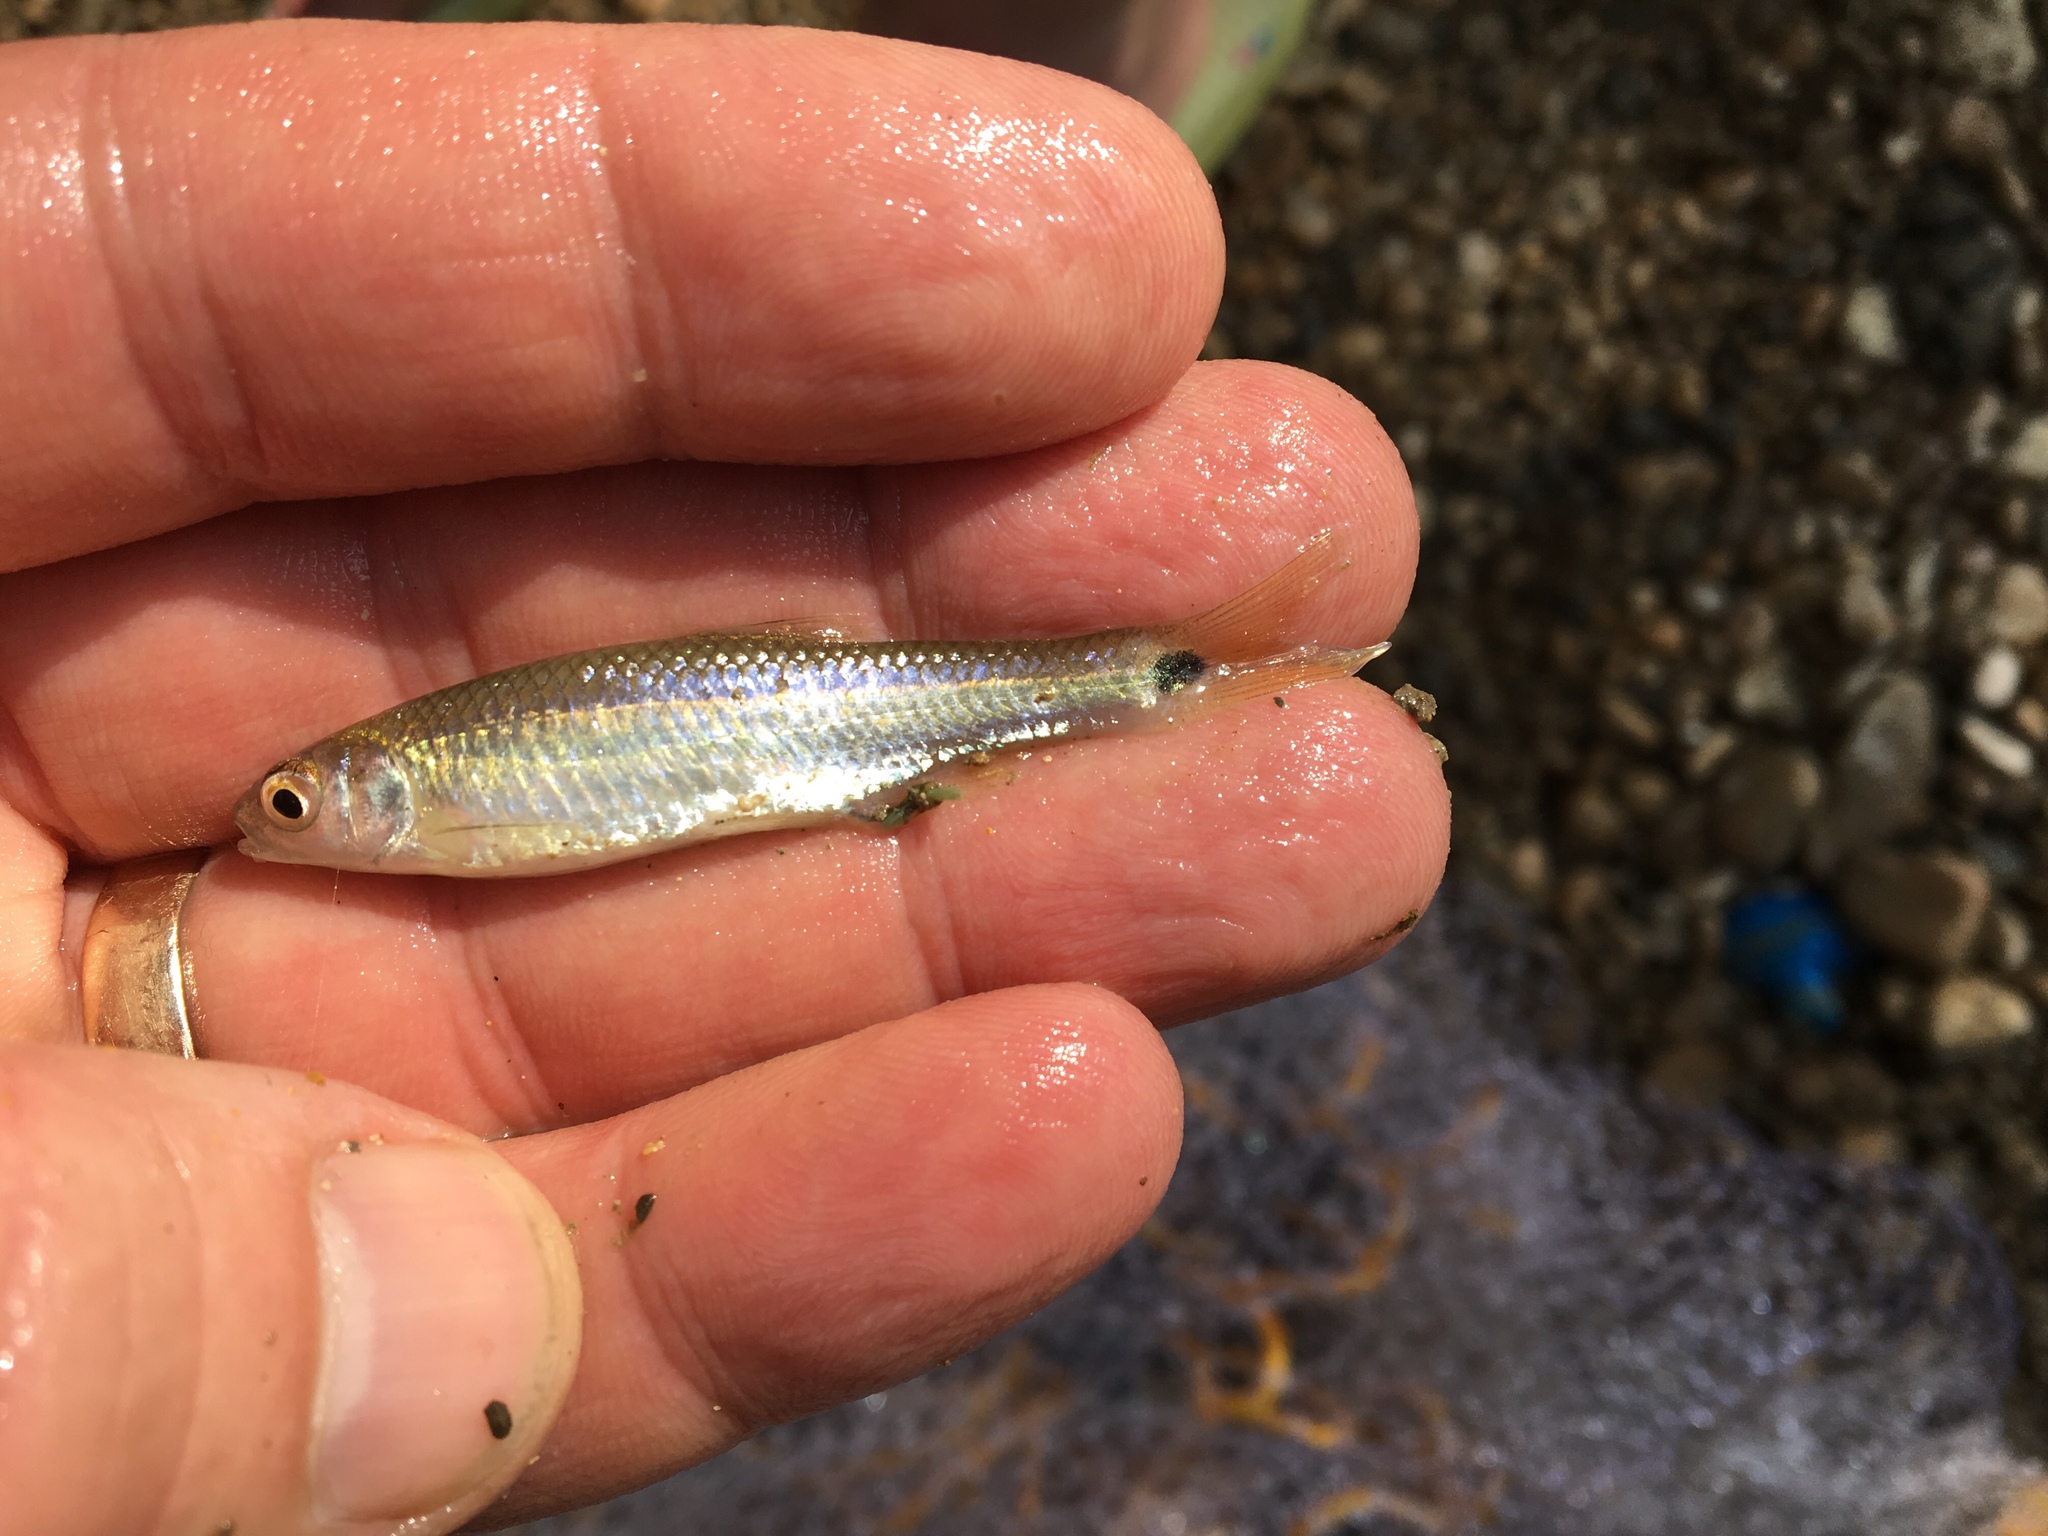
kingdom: Animalia
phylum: Chordata
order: Cypriniformes
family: Cyprinidae
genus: Cyprinella
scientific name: Cyprinella venusta
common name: Blacktail shiner
